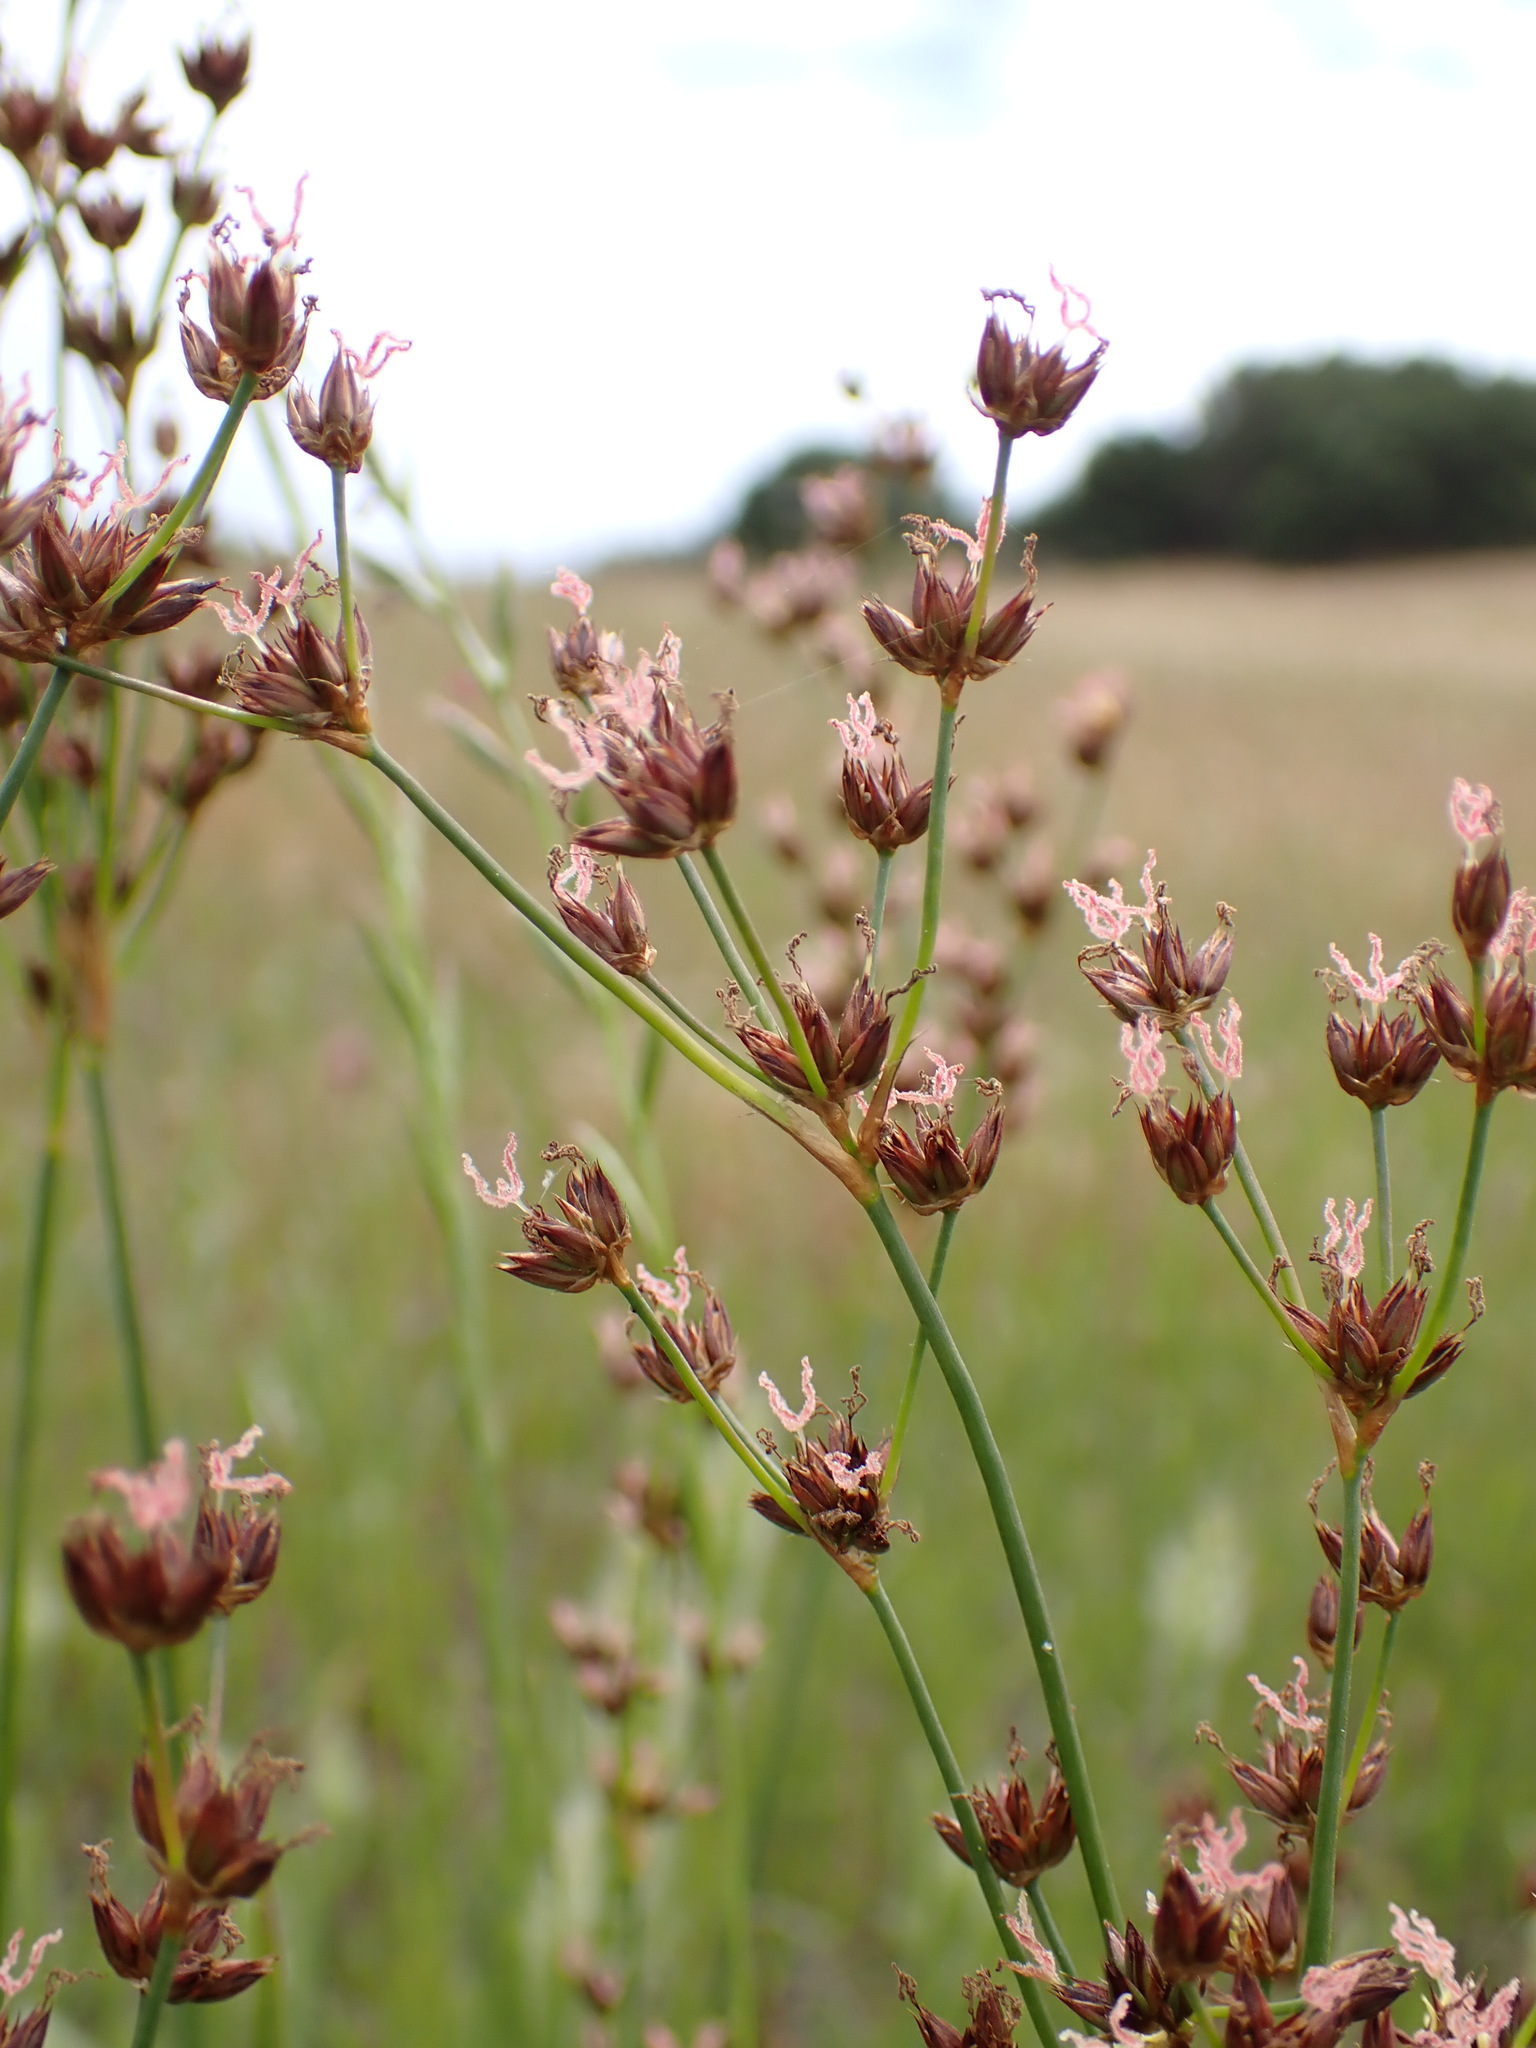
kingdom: Plantae
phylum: Tracheophyta
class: Liliopsida
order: Poales
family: Juncaceae
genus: Juncus
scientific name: Juncus xiphioides
